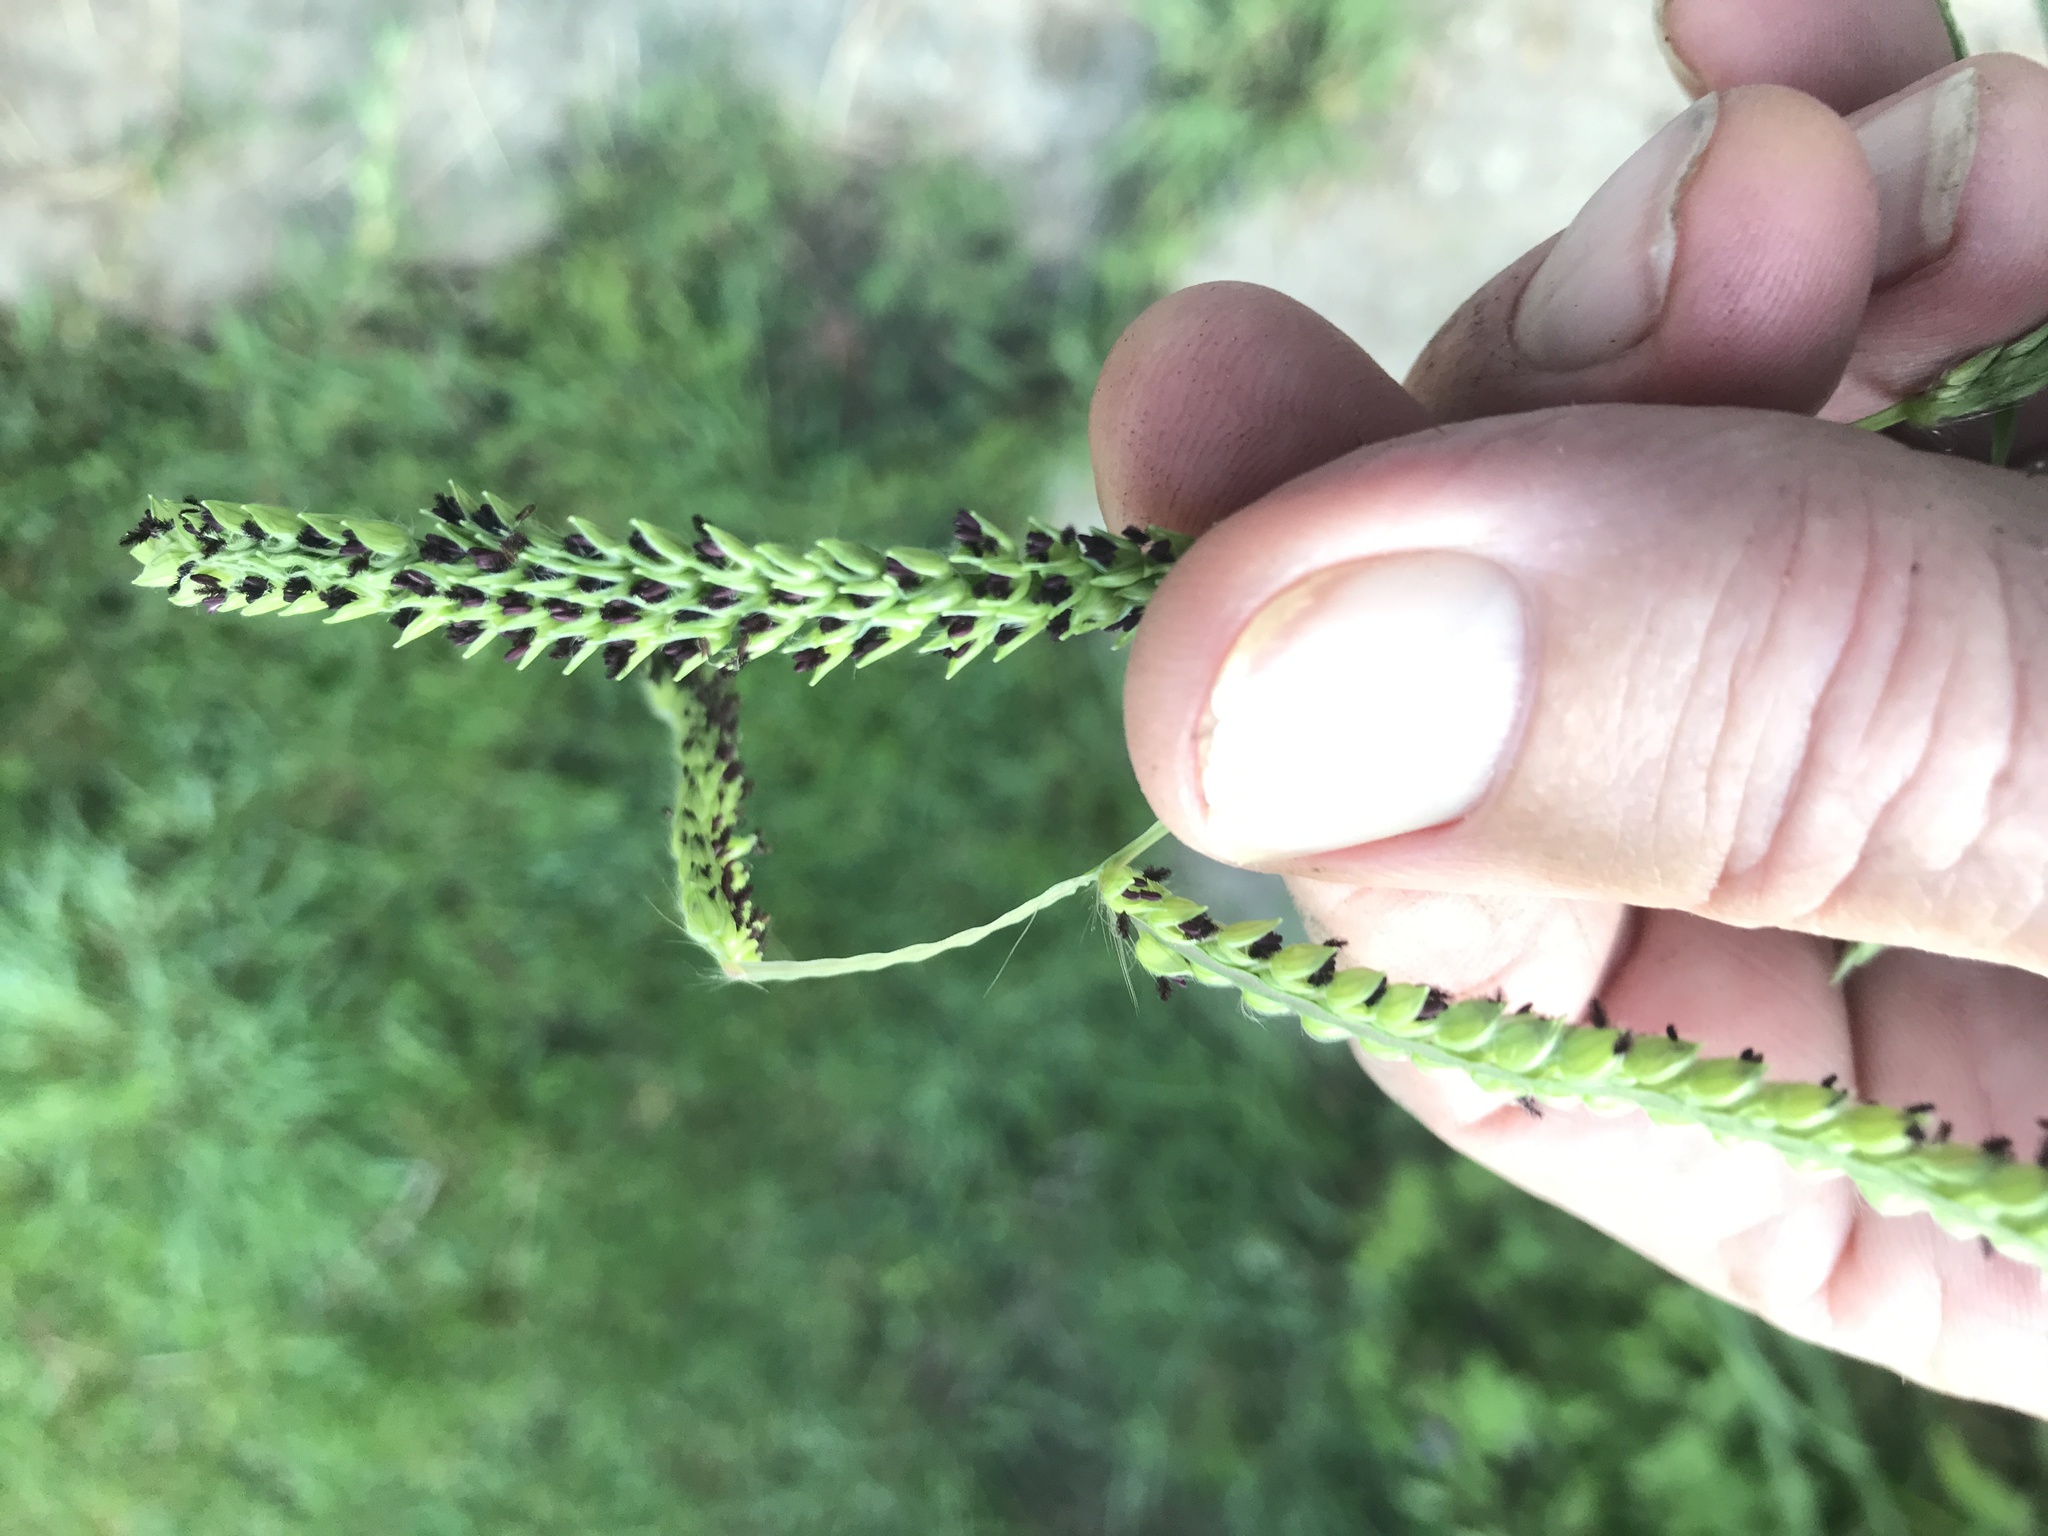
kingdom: Plantae
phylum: Tracheophyta
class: Liliopsida
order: Poales
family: Poaceae
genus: Paspalum
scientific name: Paspalum dilatatum
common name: Dallisgrass
